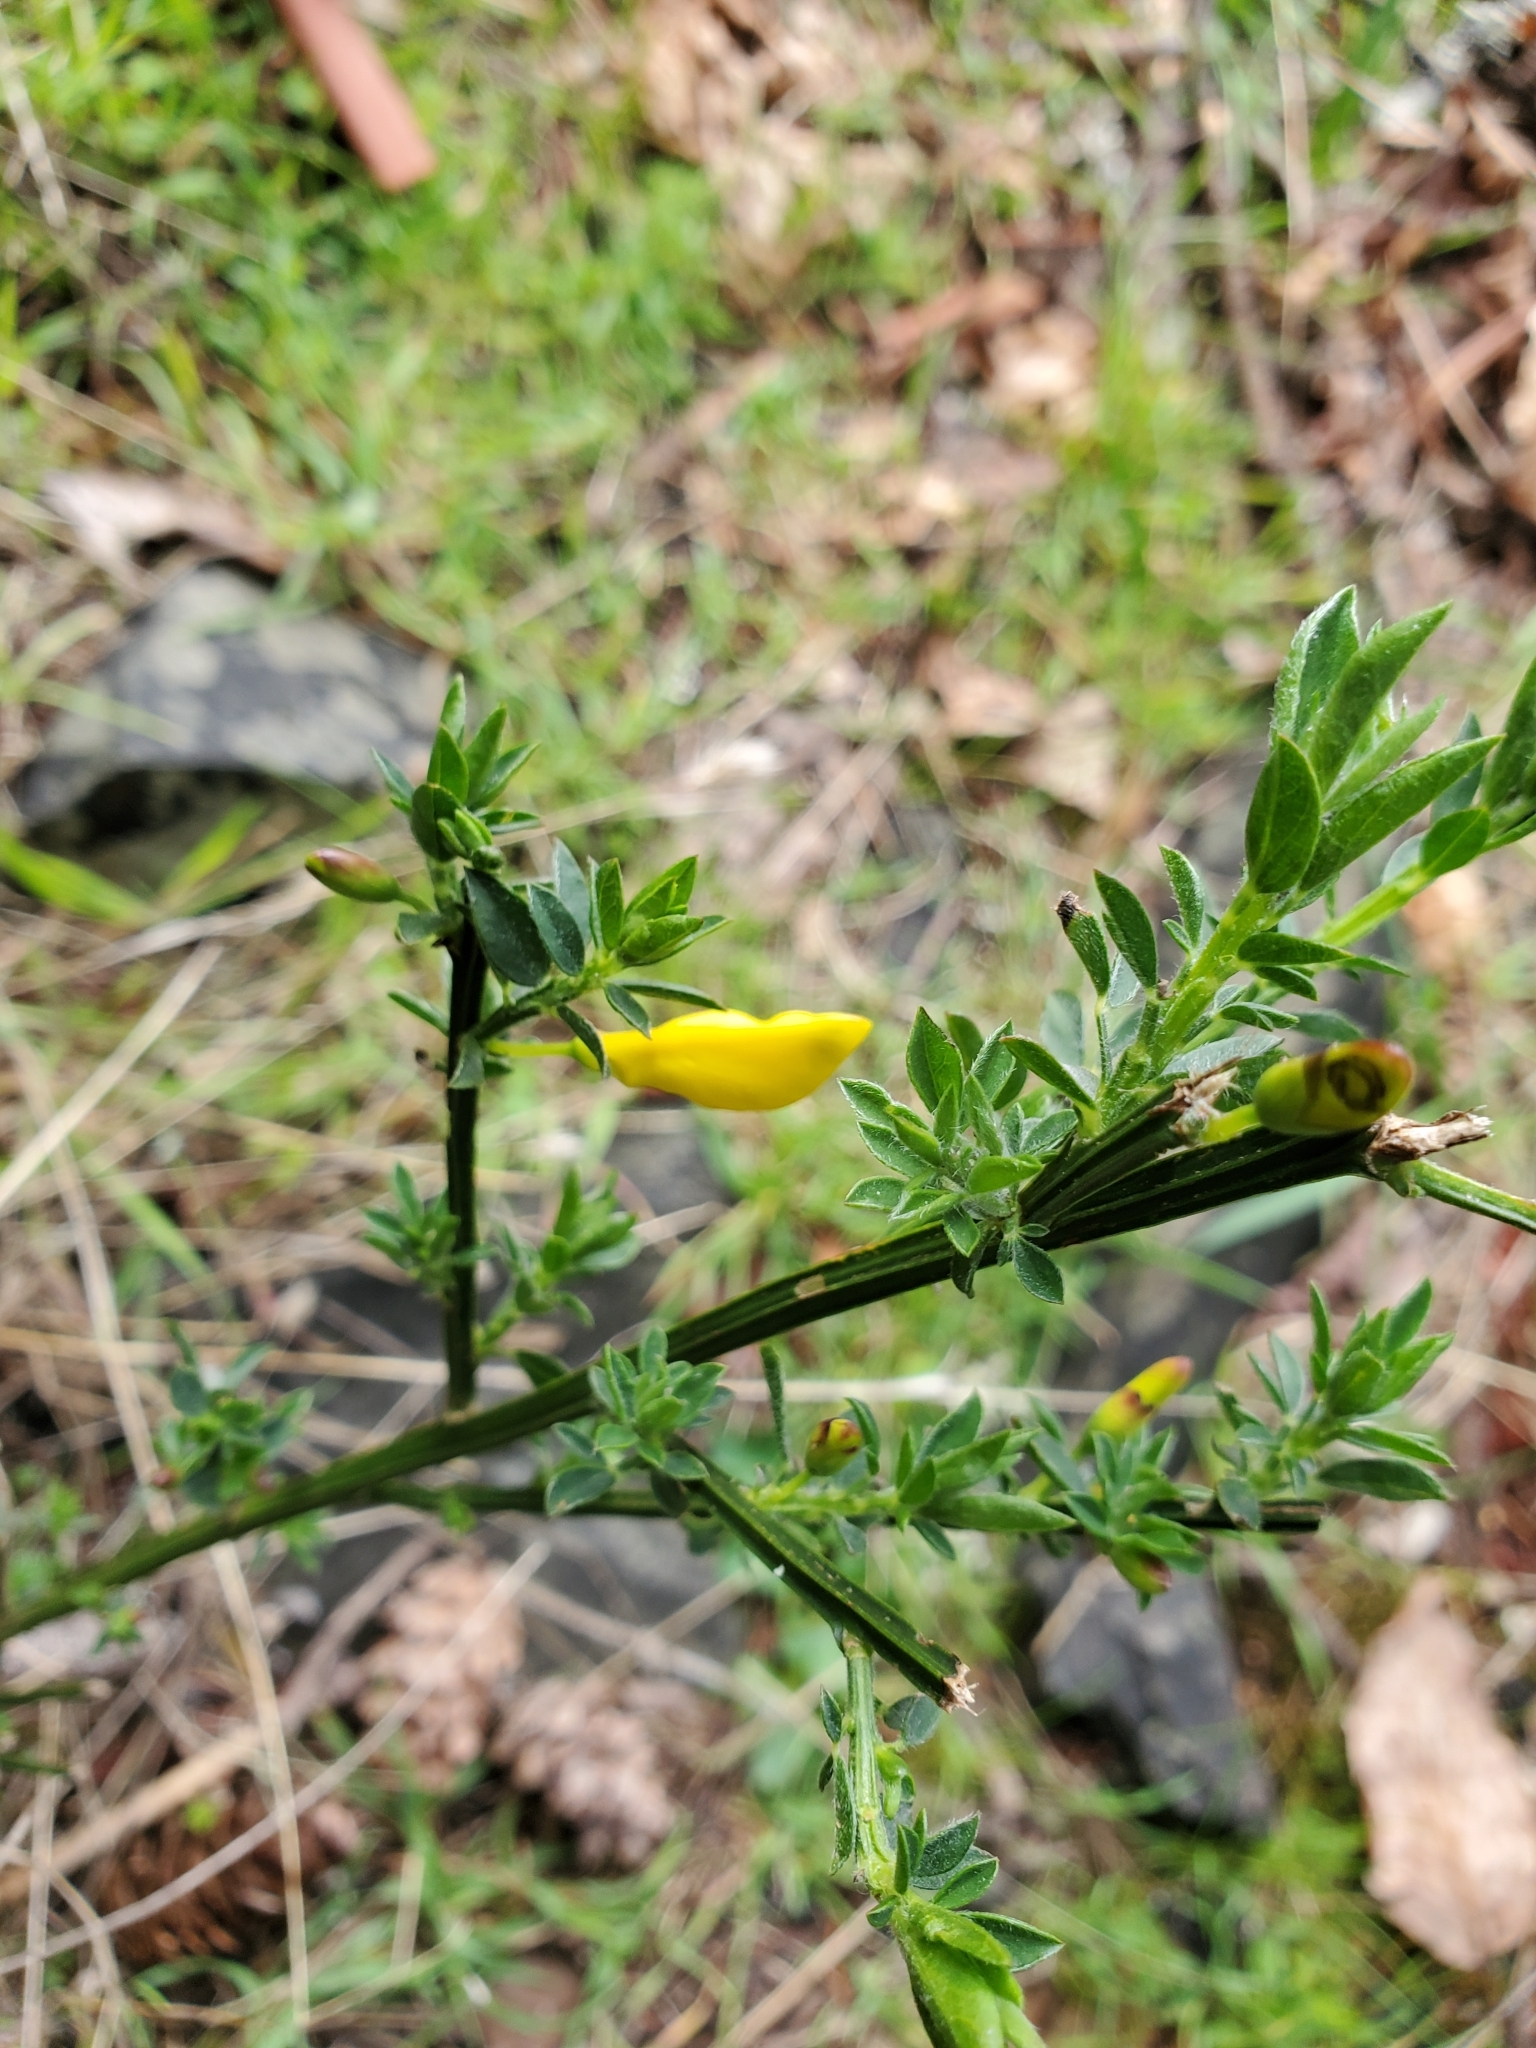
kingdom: Plantae
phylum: Tracheophyta
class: Magnoliopsida
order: Fabales
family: Fabaceae
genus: Cytisus
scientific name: Cytisus scoparius
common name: Scotch broom
